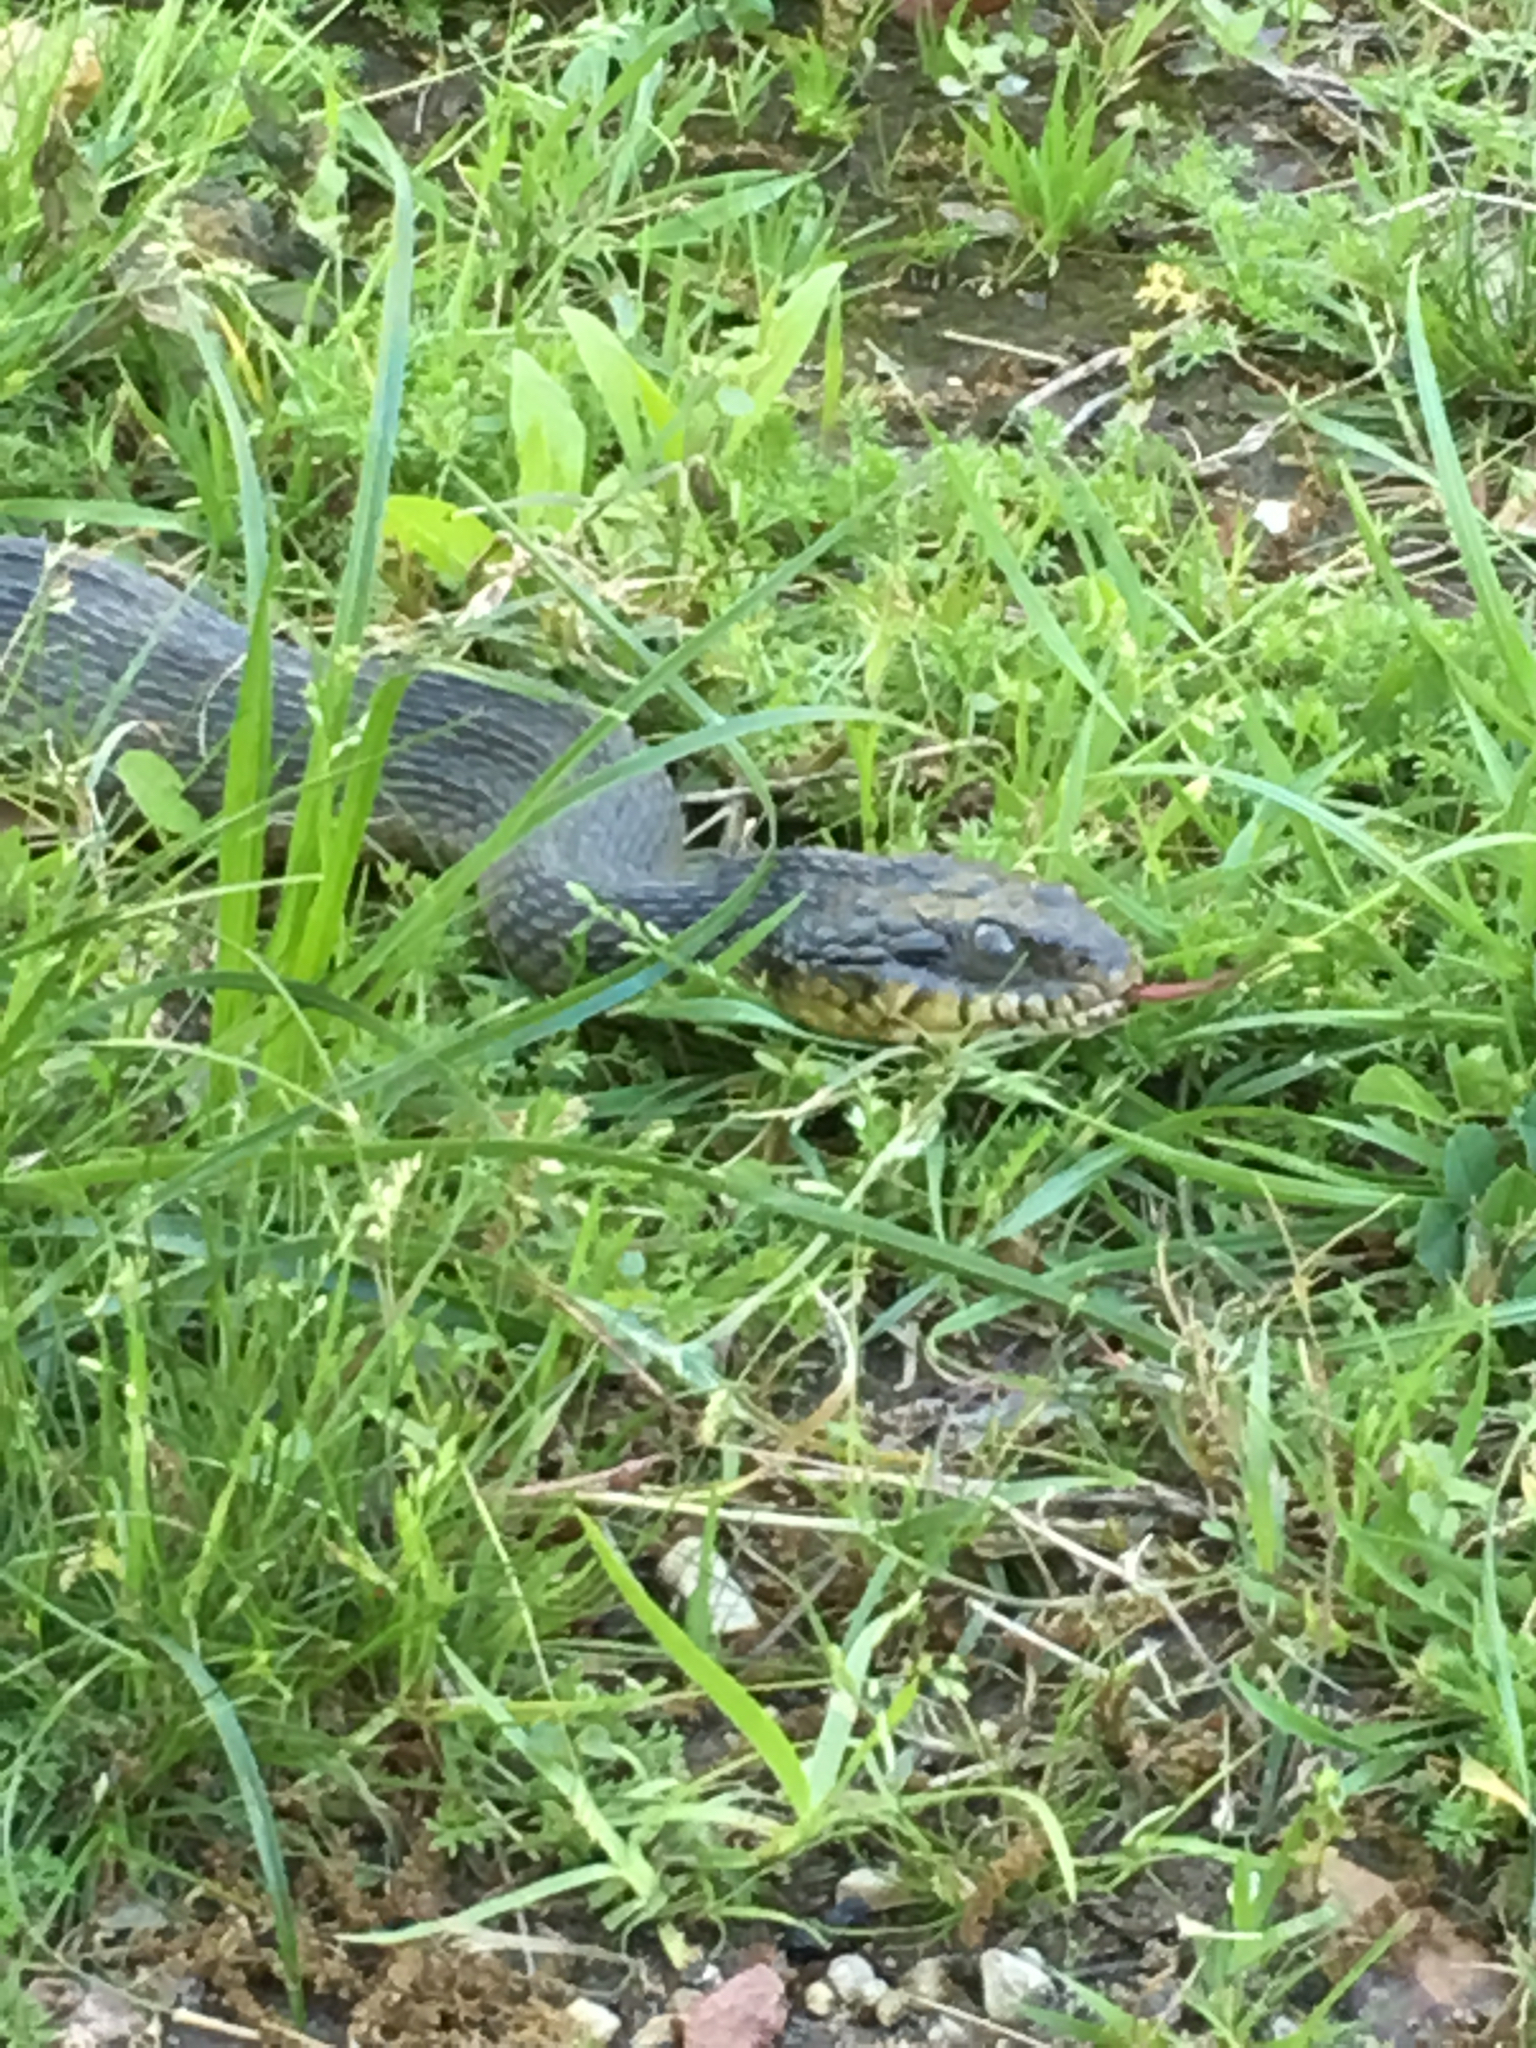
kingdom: Animalia
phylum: Chordata
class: Squamata
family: Colubridae
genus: Nerodia
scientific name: Nerodia erythrogaster
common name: Plainbelly water snake
